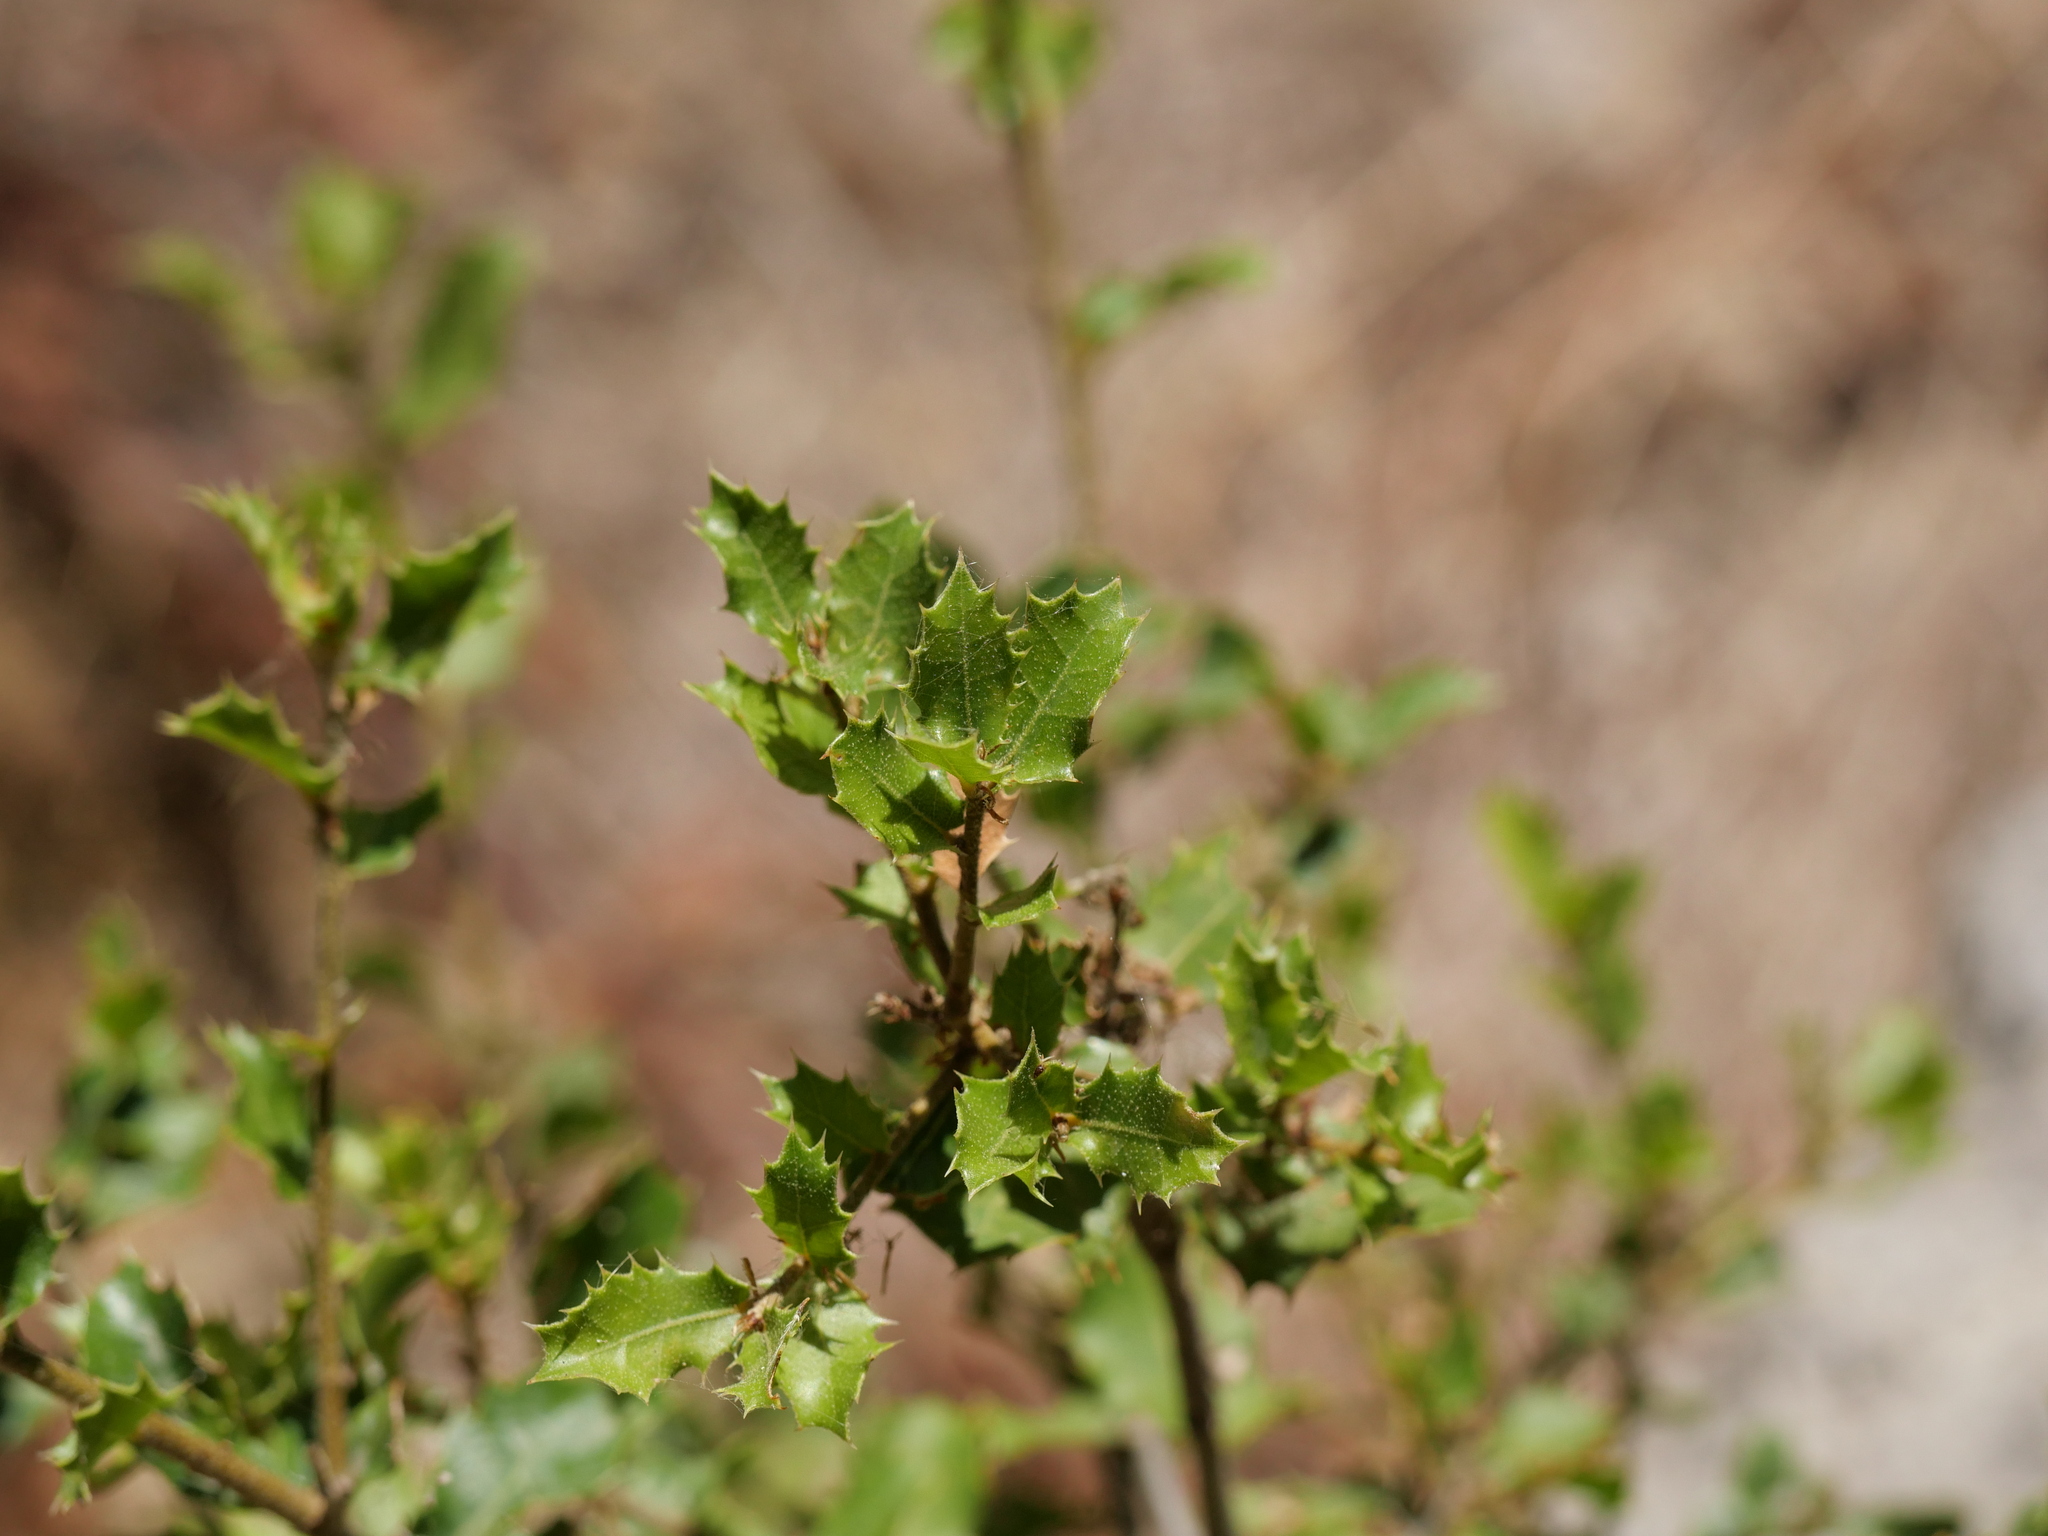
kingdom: Plantae
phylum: Tracheophyta
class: Magnoliopsida
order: Fagales
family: Fagaceae
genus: Quercus
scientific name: Quercus coccifera
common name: Kermes oak
